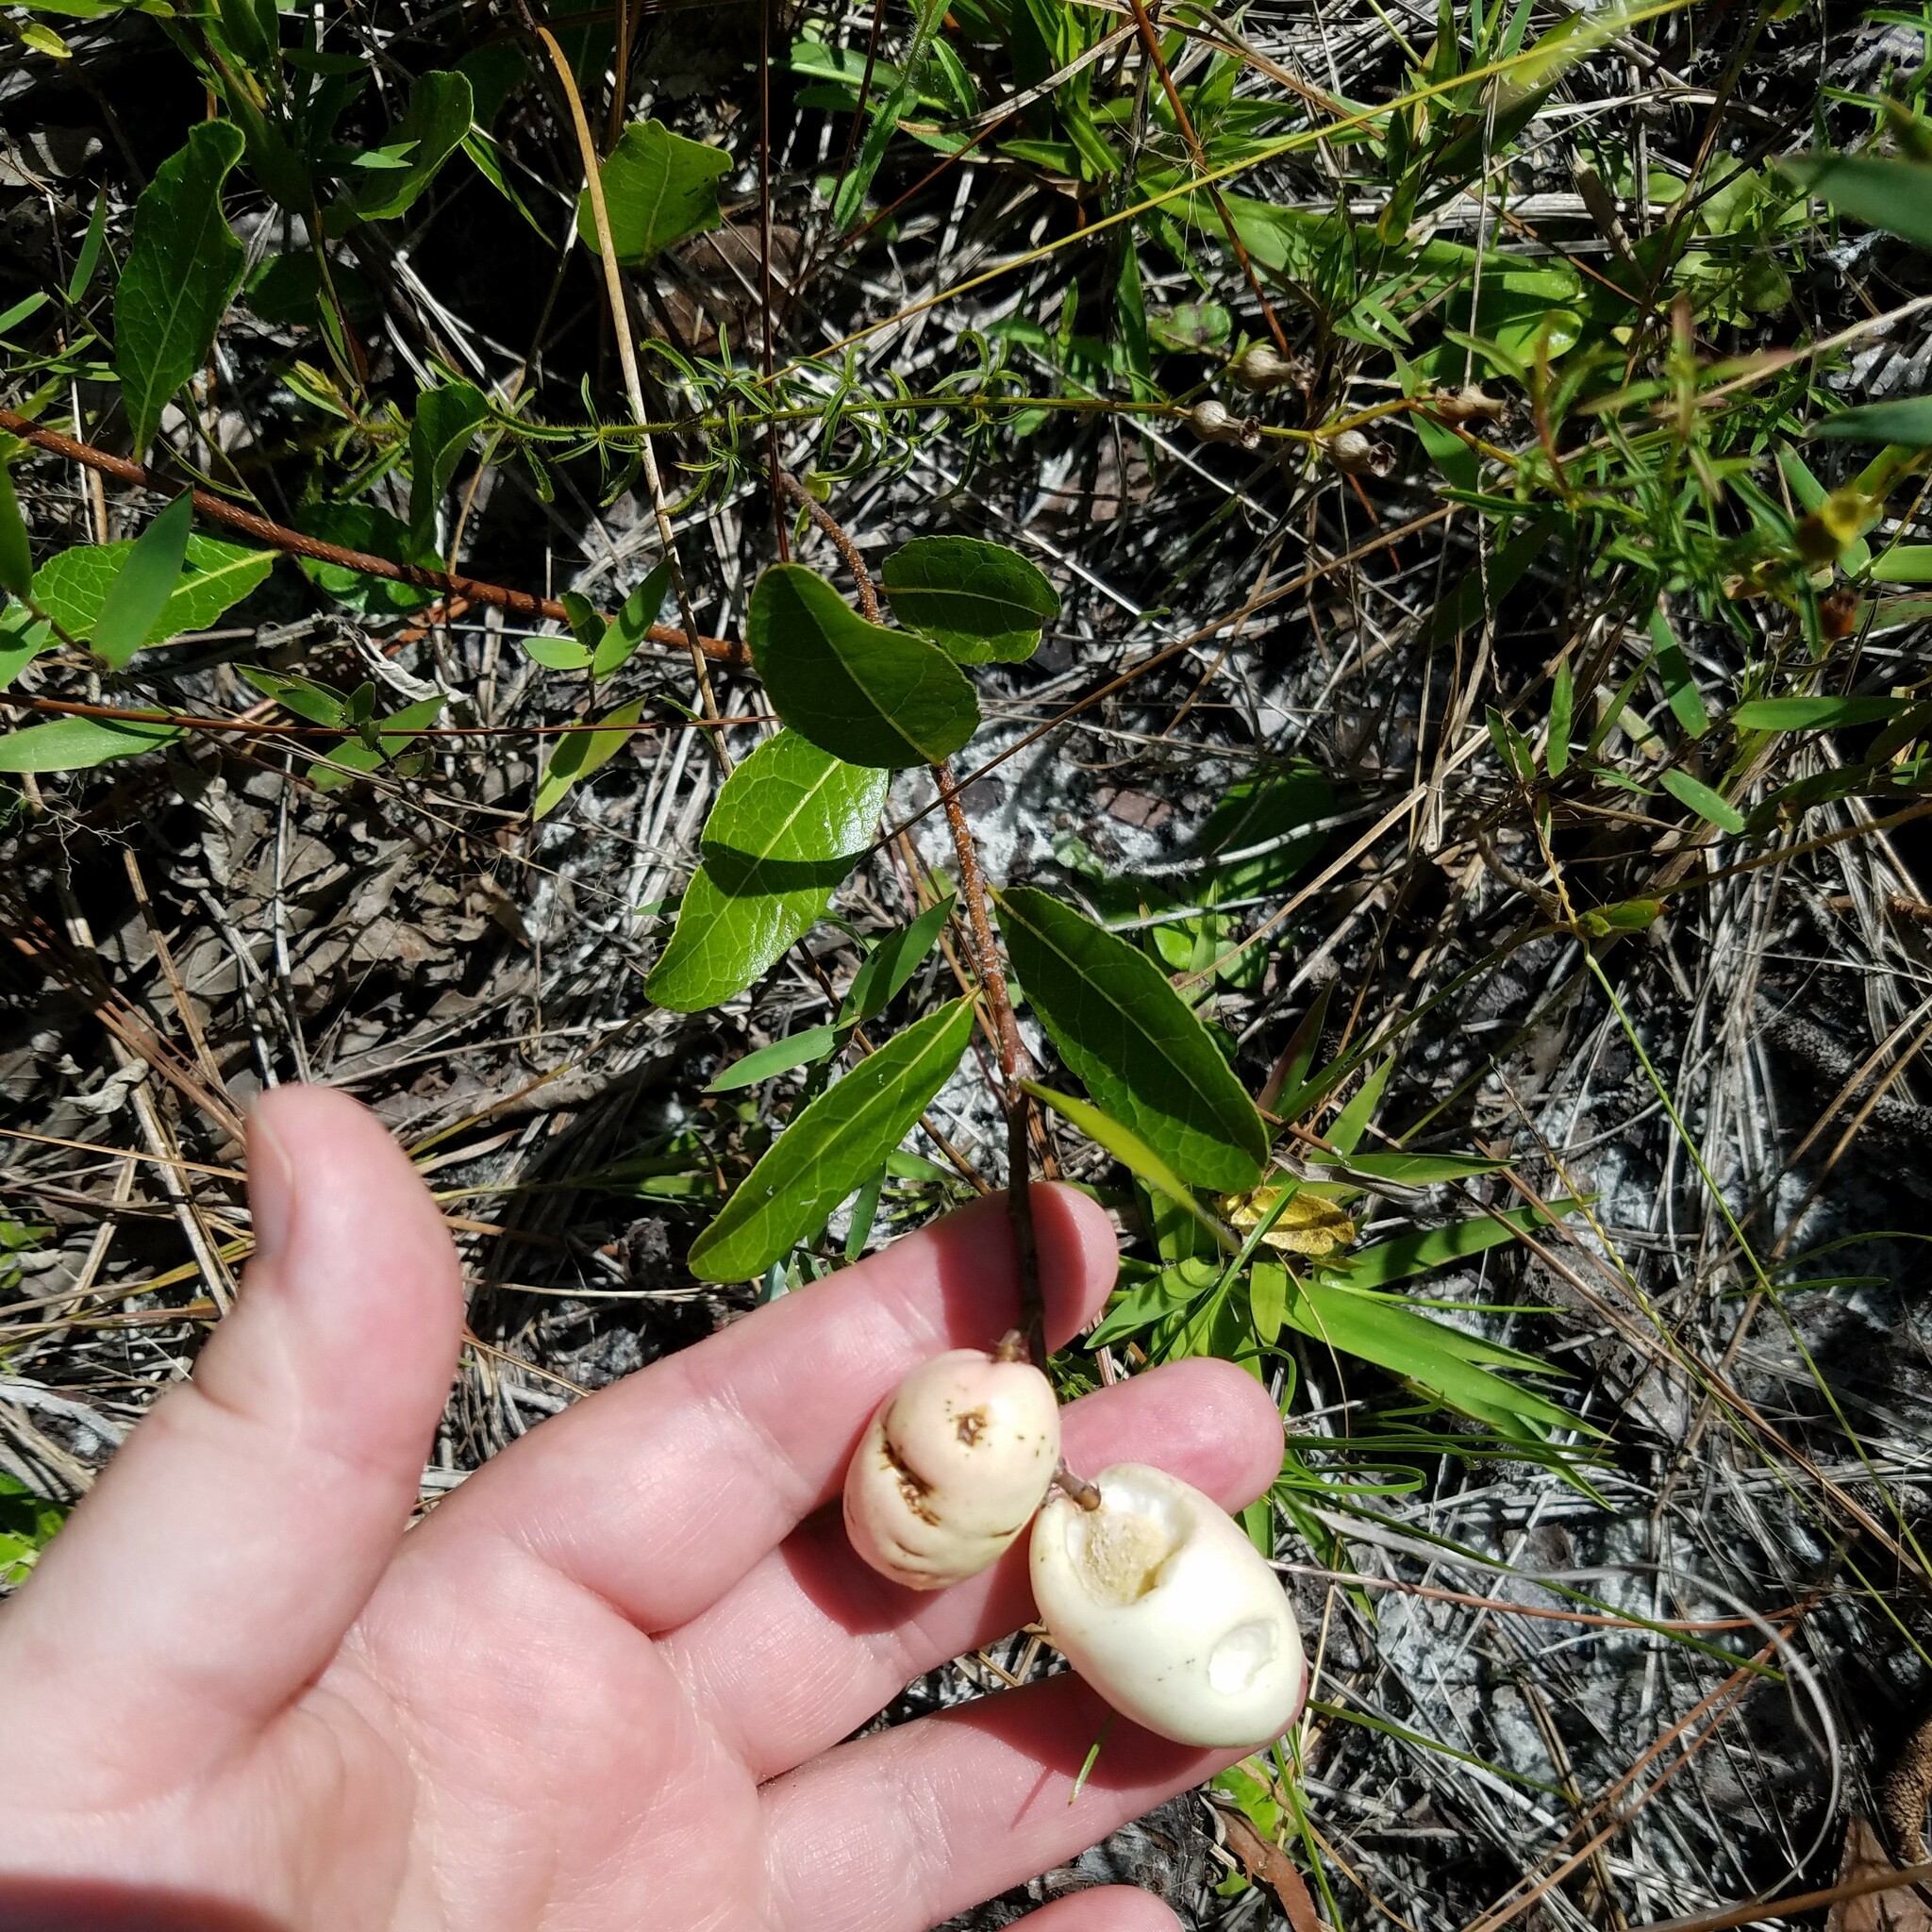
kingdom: Plantae
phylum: Tracheophyta
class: Magnoliopsida
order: Malpighiales
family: Chrysobalanaceae
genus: Geobalanus
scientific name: Geobalanus oblongifolius
